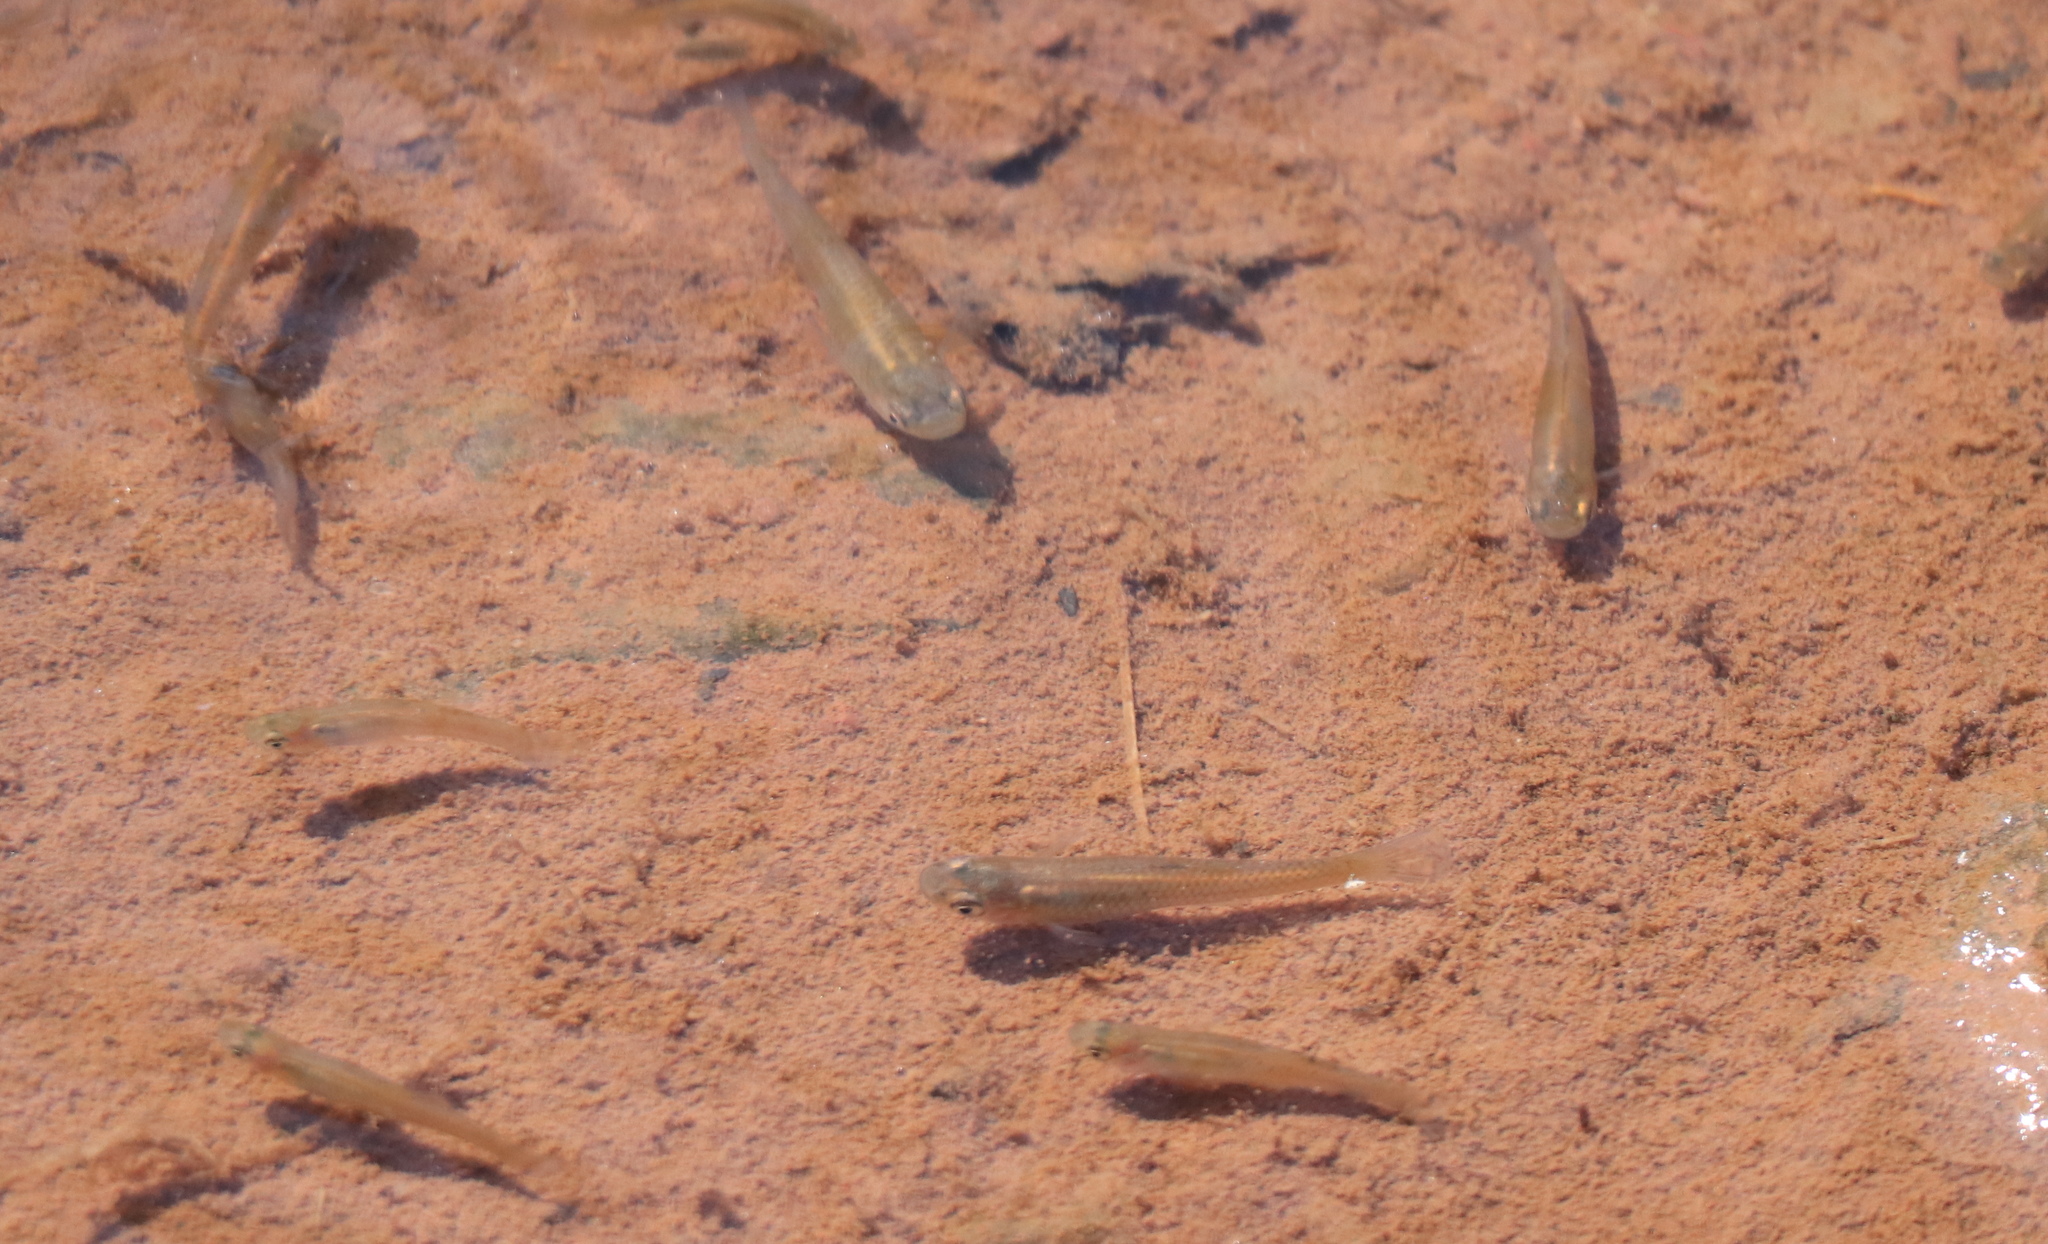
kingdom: Animalia
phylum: Chordata
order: Cyprinodontiformes
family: Poeciliidae
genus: Gambusia
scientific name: Gambusia holbrooki
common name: Eastern mosquitofish
